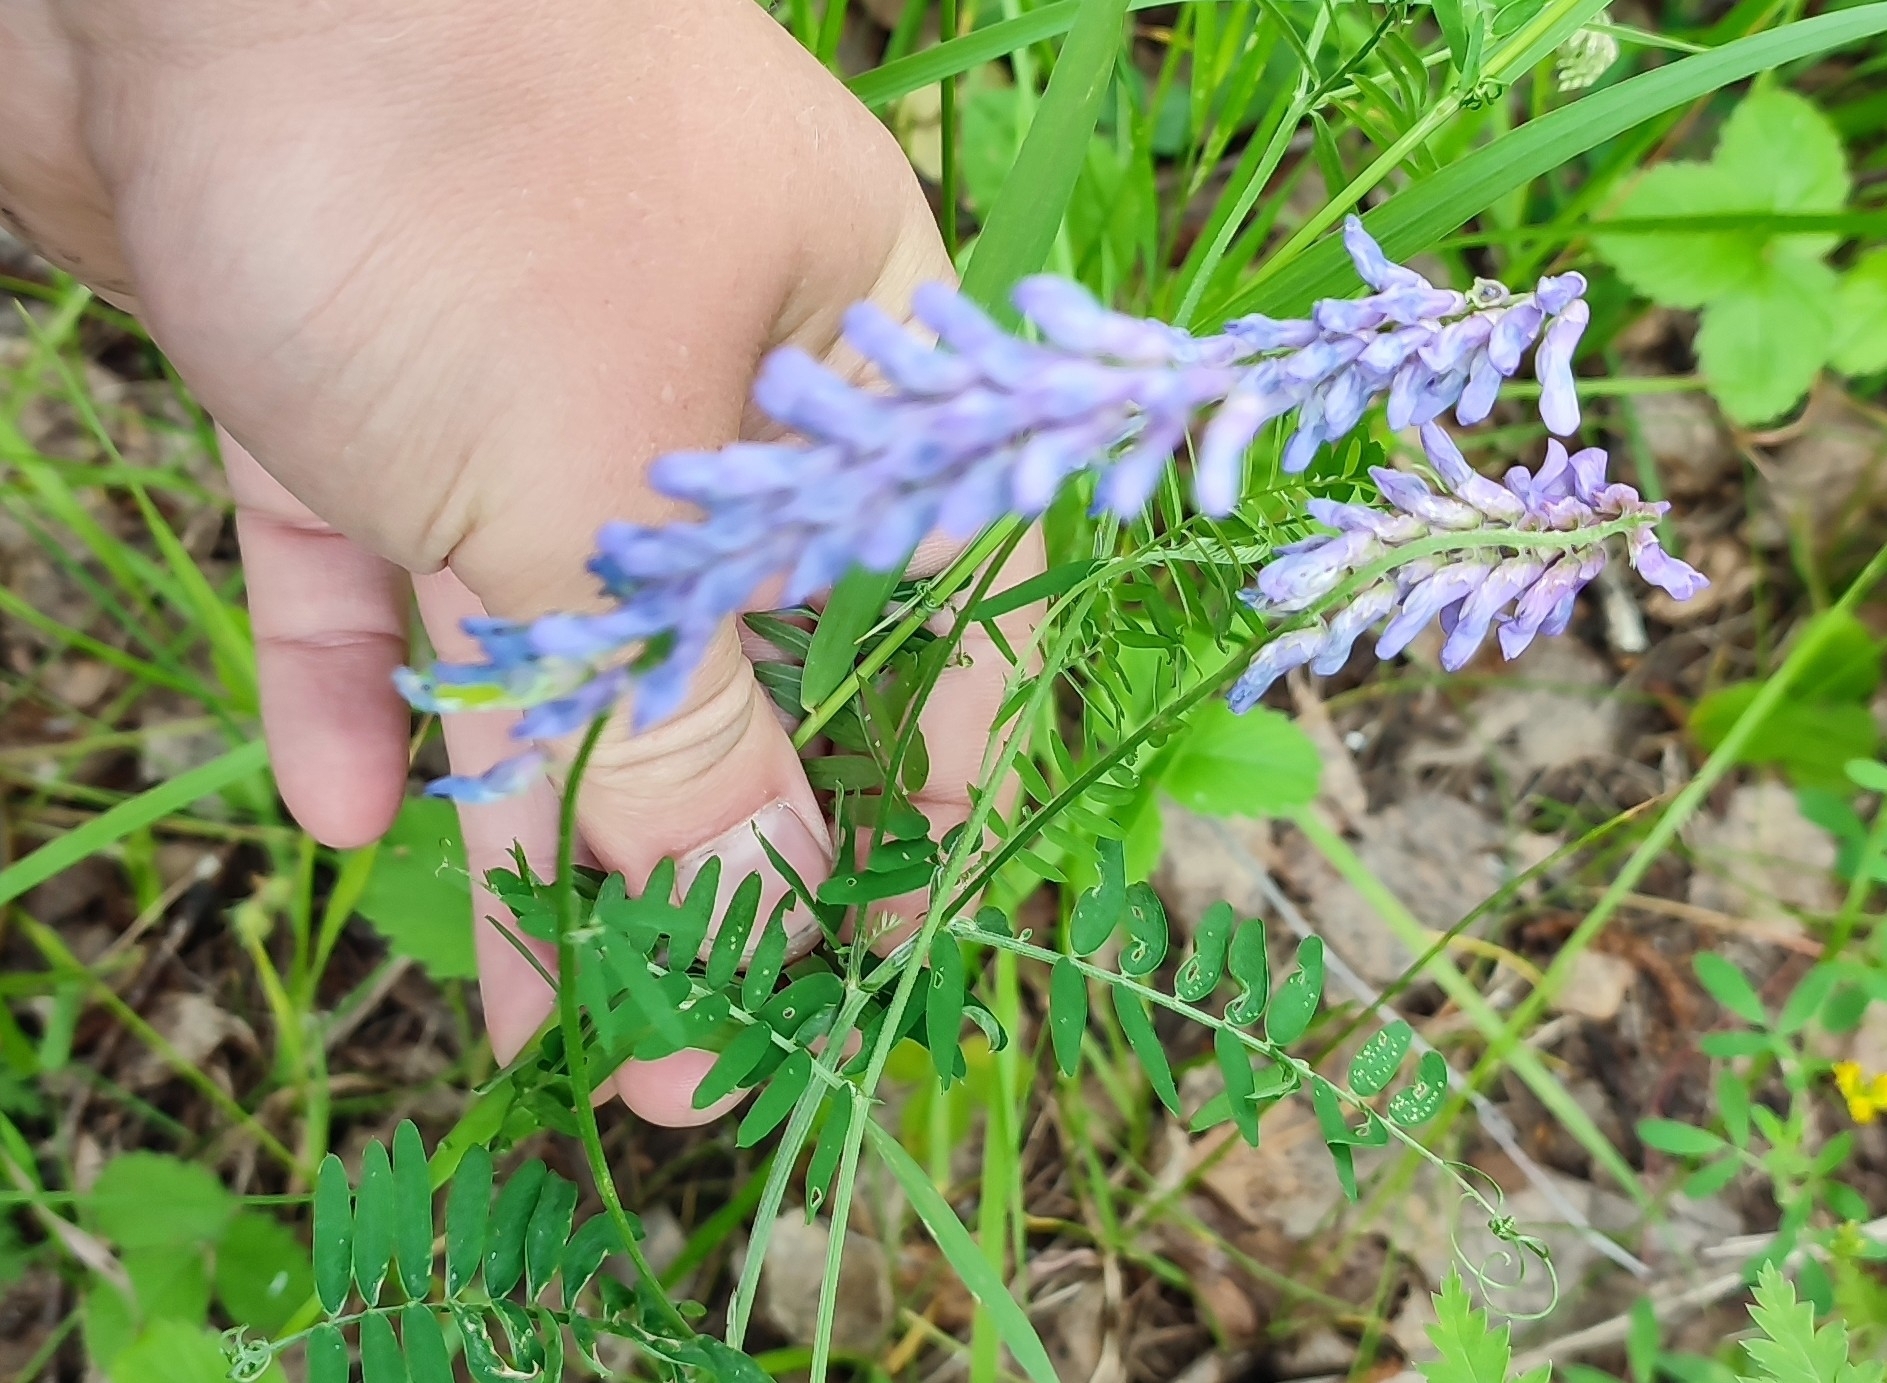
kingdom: Plantae
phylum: Tracheophyta
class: Magnoliopsida
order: Fabales
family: Fabaceae
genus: Vicia
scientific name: Vicia cracca
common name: Bird vetch
